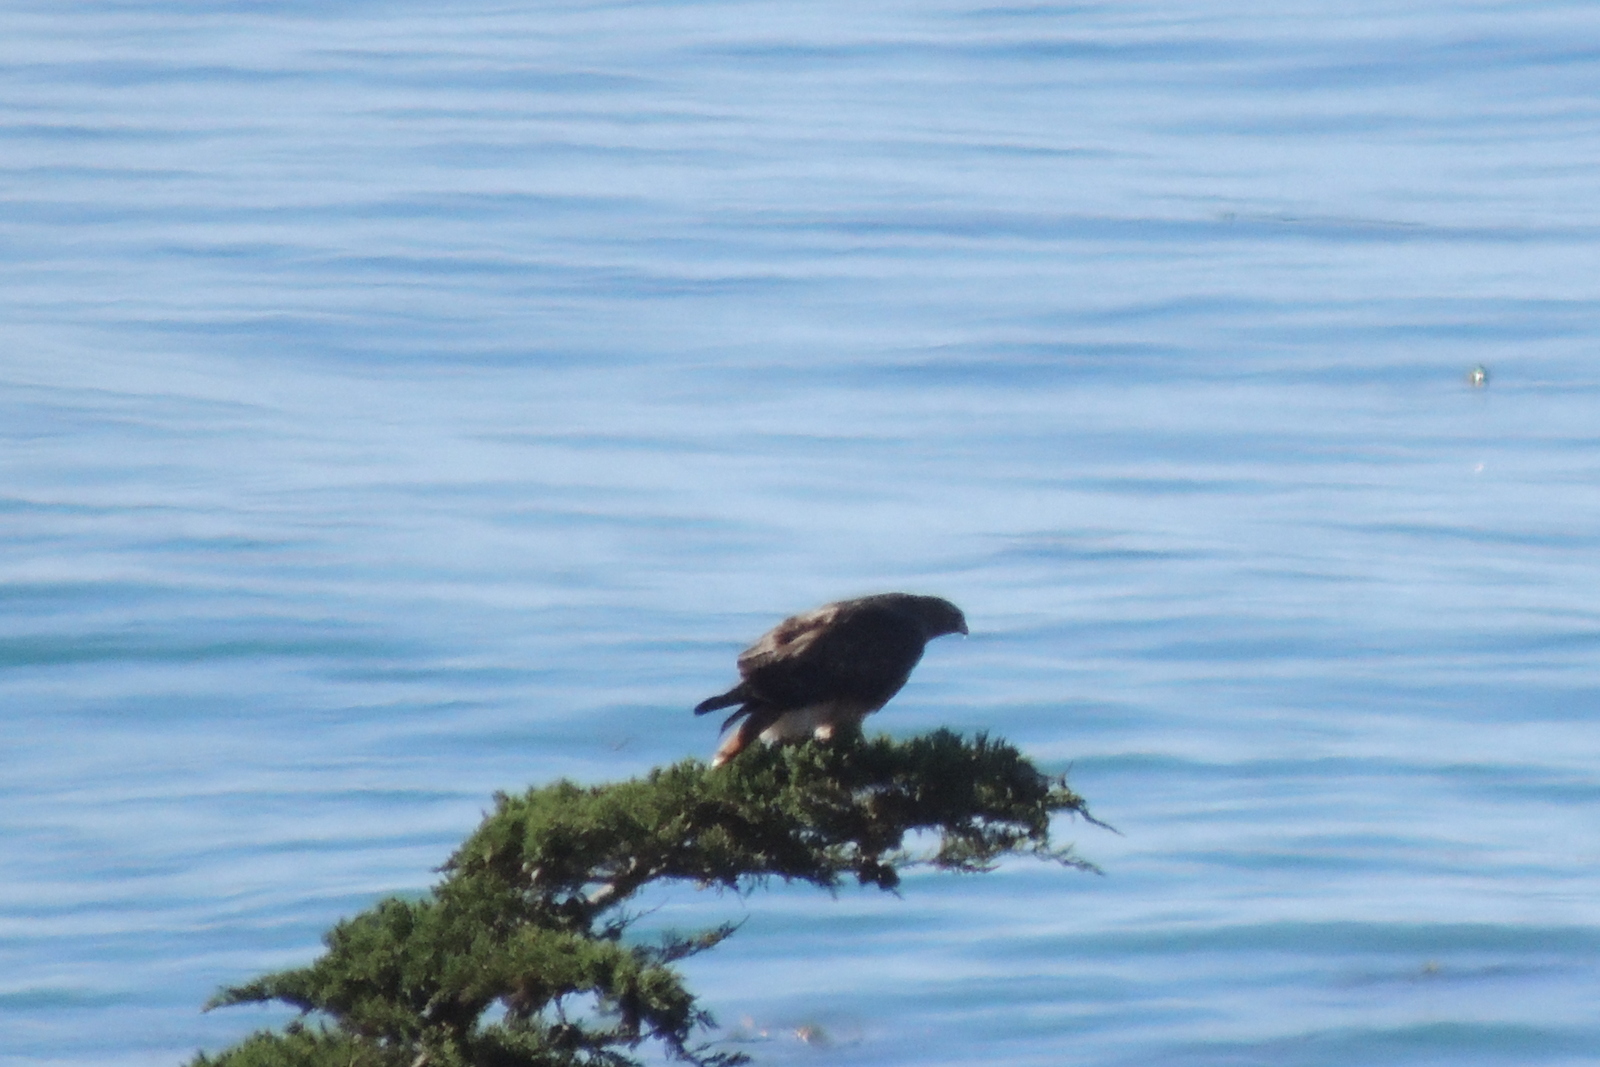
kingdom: Animalia
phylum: Chordata
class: Aves
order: Accipitriformes
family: Accipitridae
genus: Buteo
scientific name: Buteo jamaicensis
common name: Red-tailed hawk
